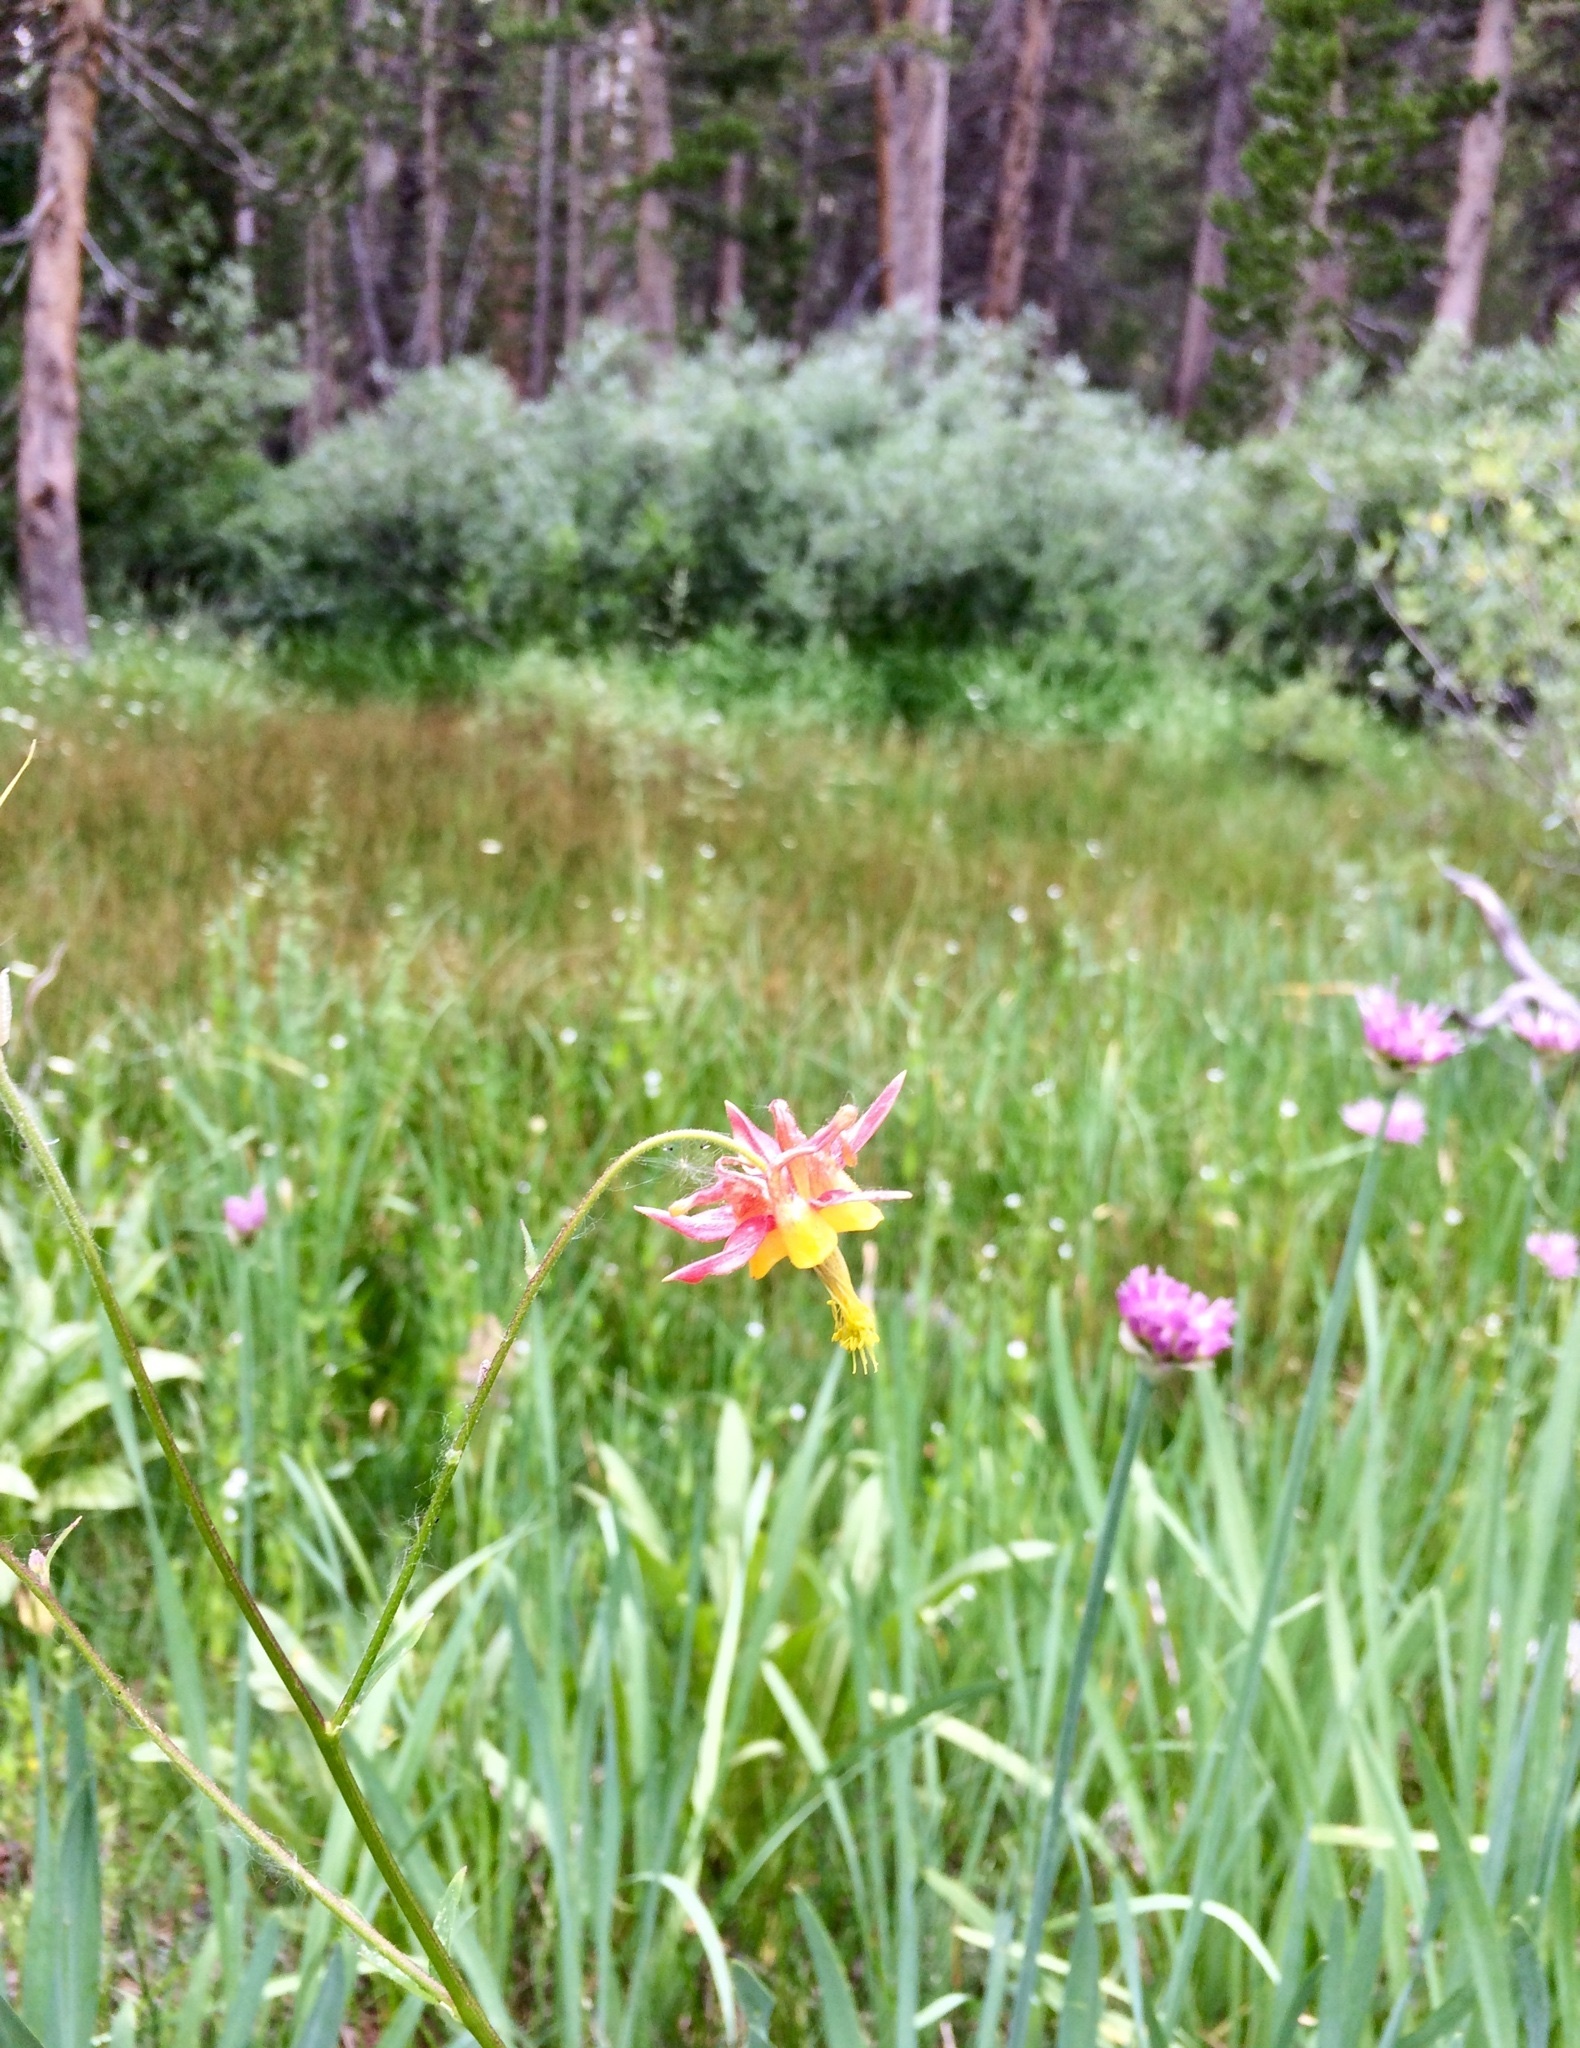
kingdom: Plantae
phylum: Tracheophyta
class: Magnoliopsida
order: Ranunculales
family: Ranunculaceae
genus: Aquilegia
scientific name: Aquilegia formosa
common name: Sitka columbine
